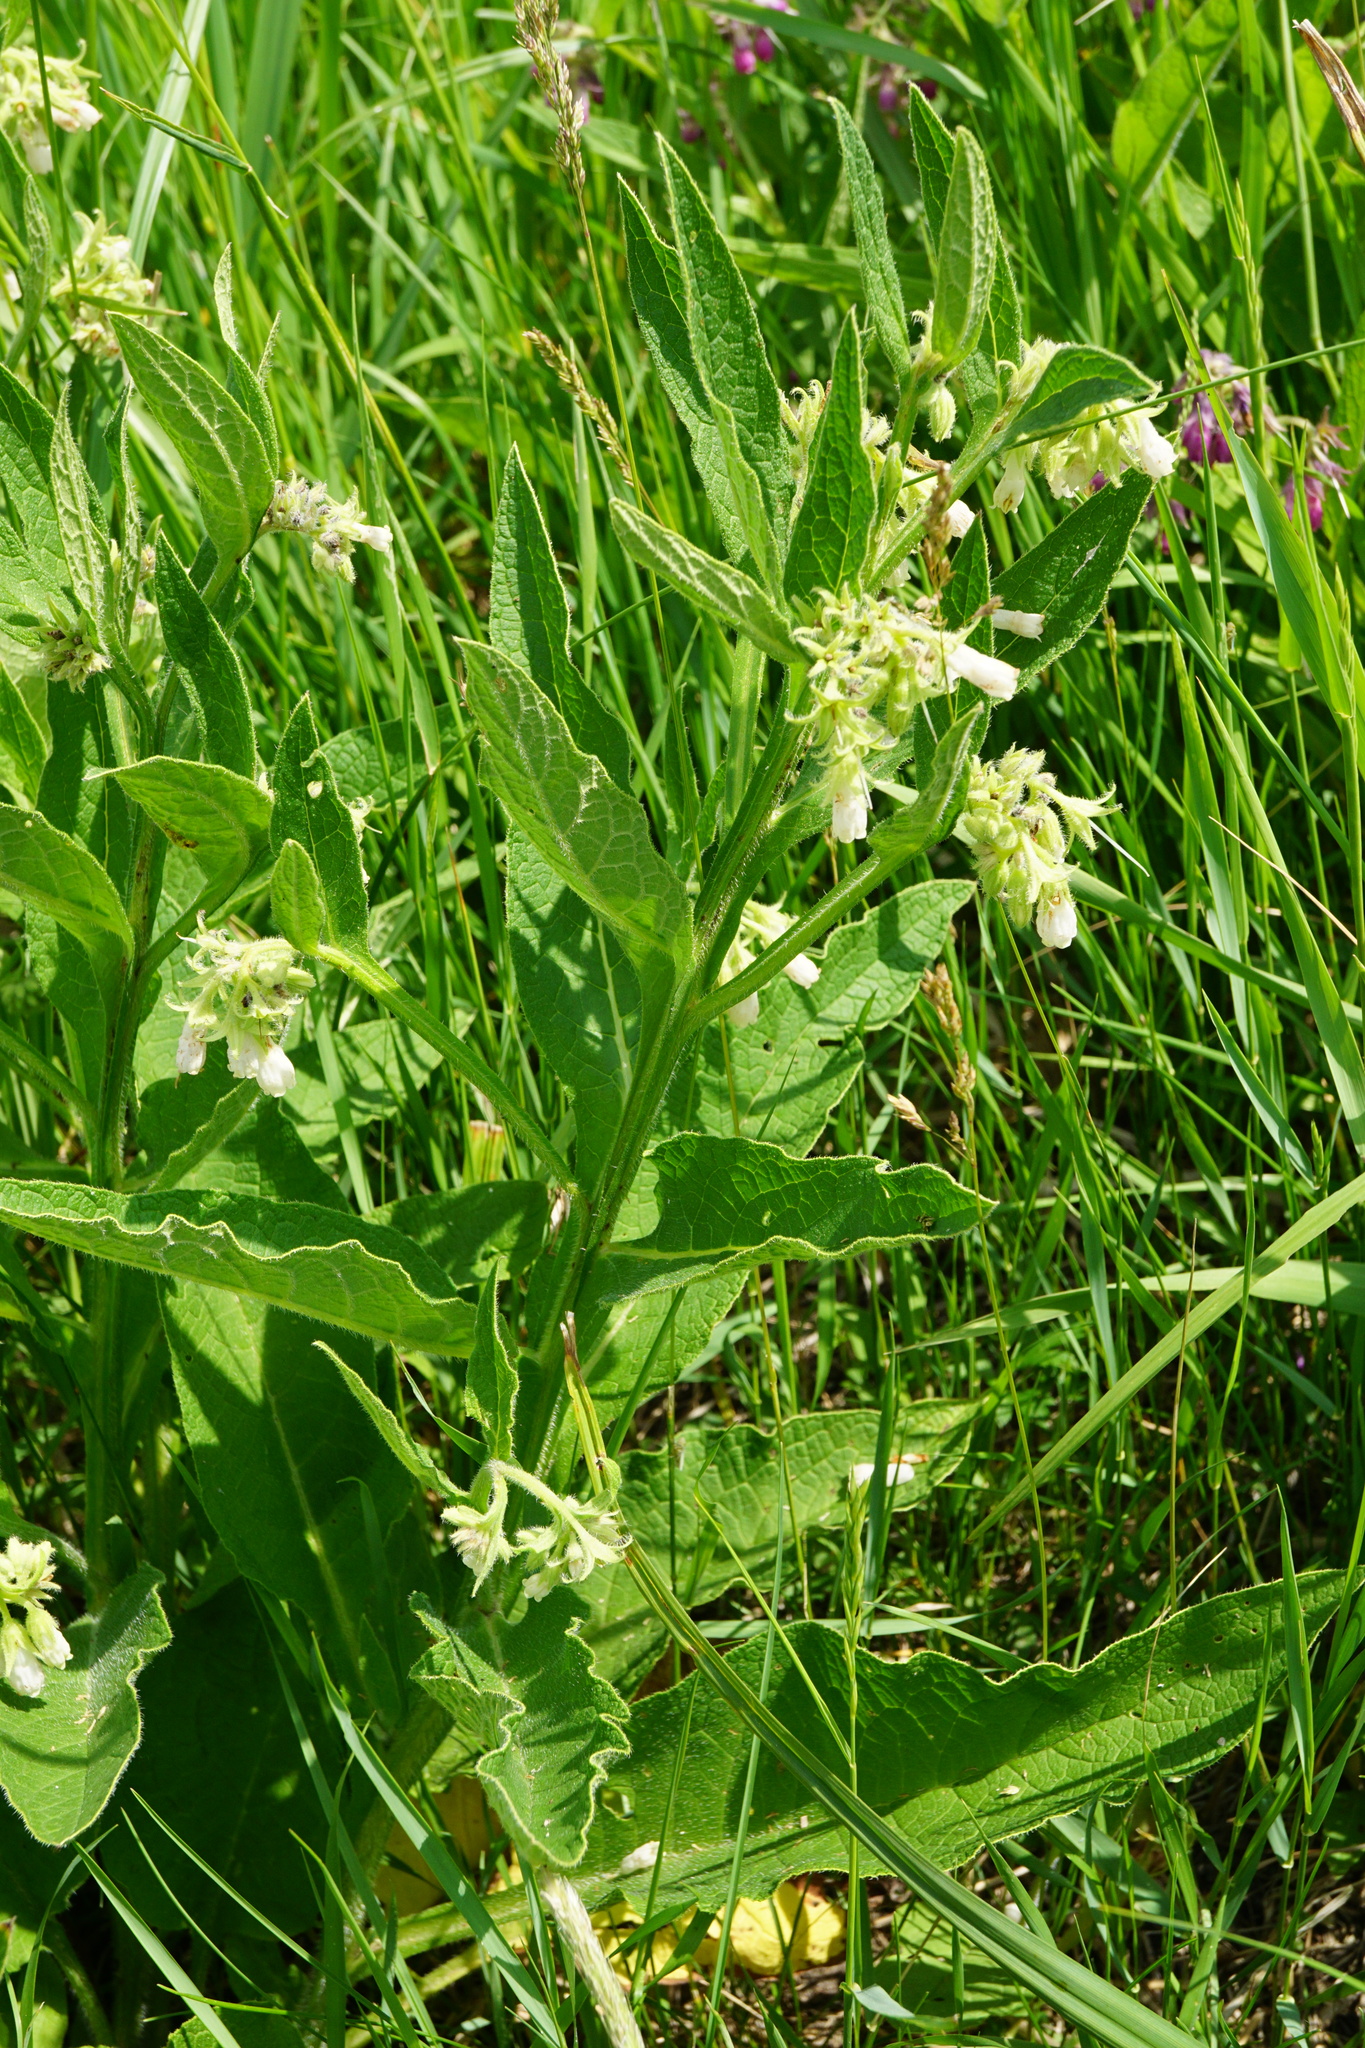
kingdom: Plantae
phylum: Tracheophyta
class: Magnoliopsida
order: Boraginales
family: Boraginaceae
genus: Symphytum
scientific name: Symphytum officinale
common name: Common comfrey
